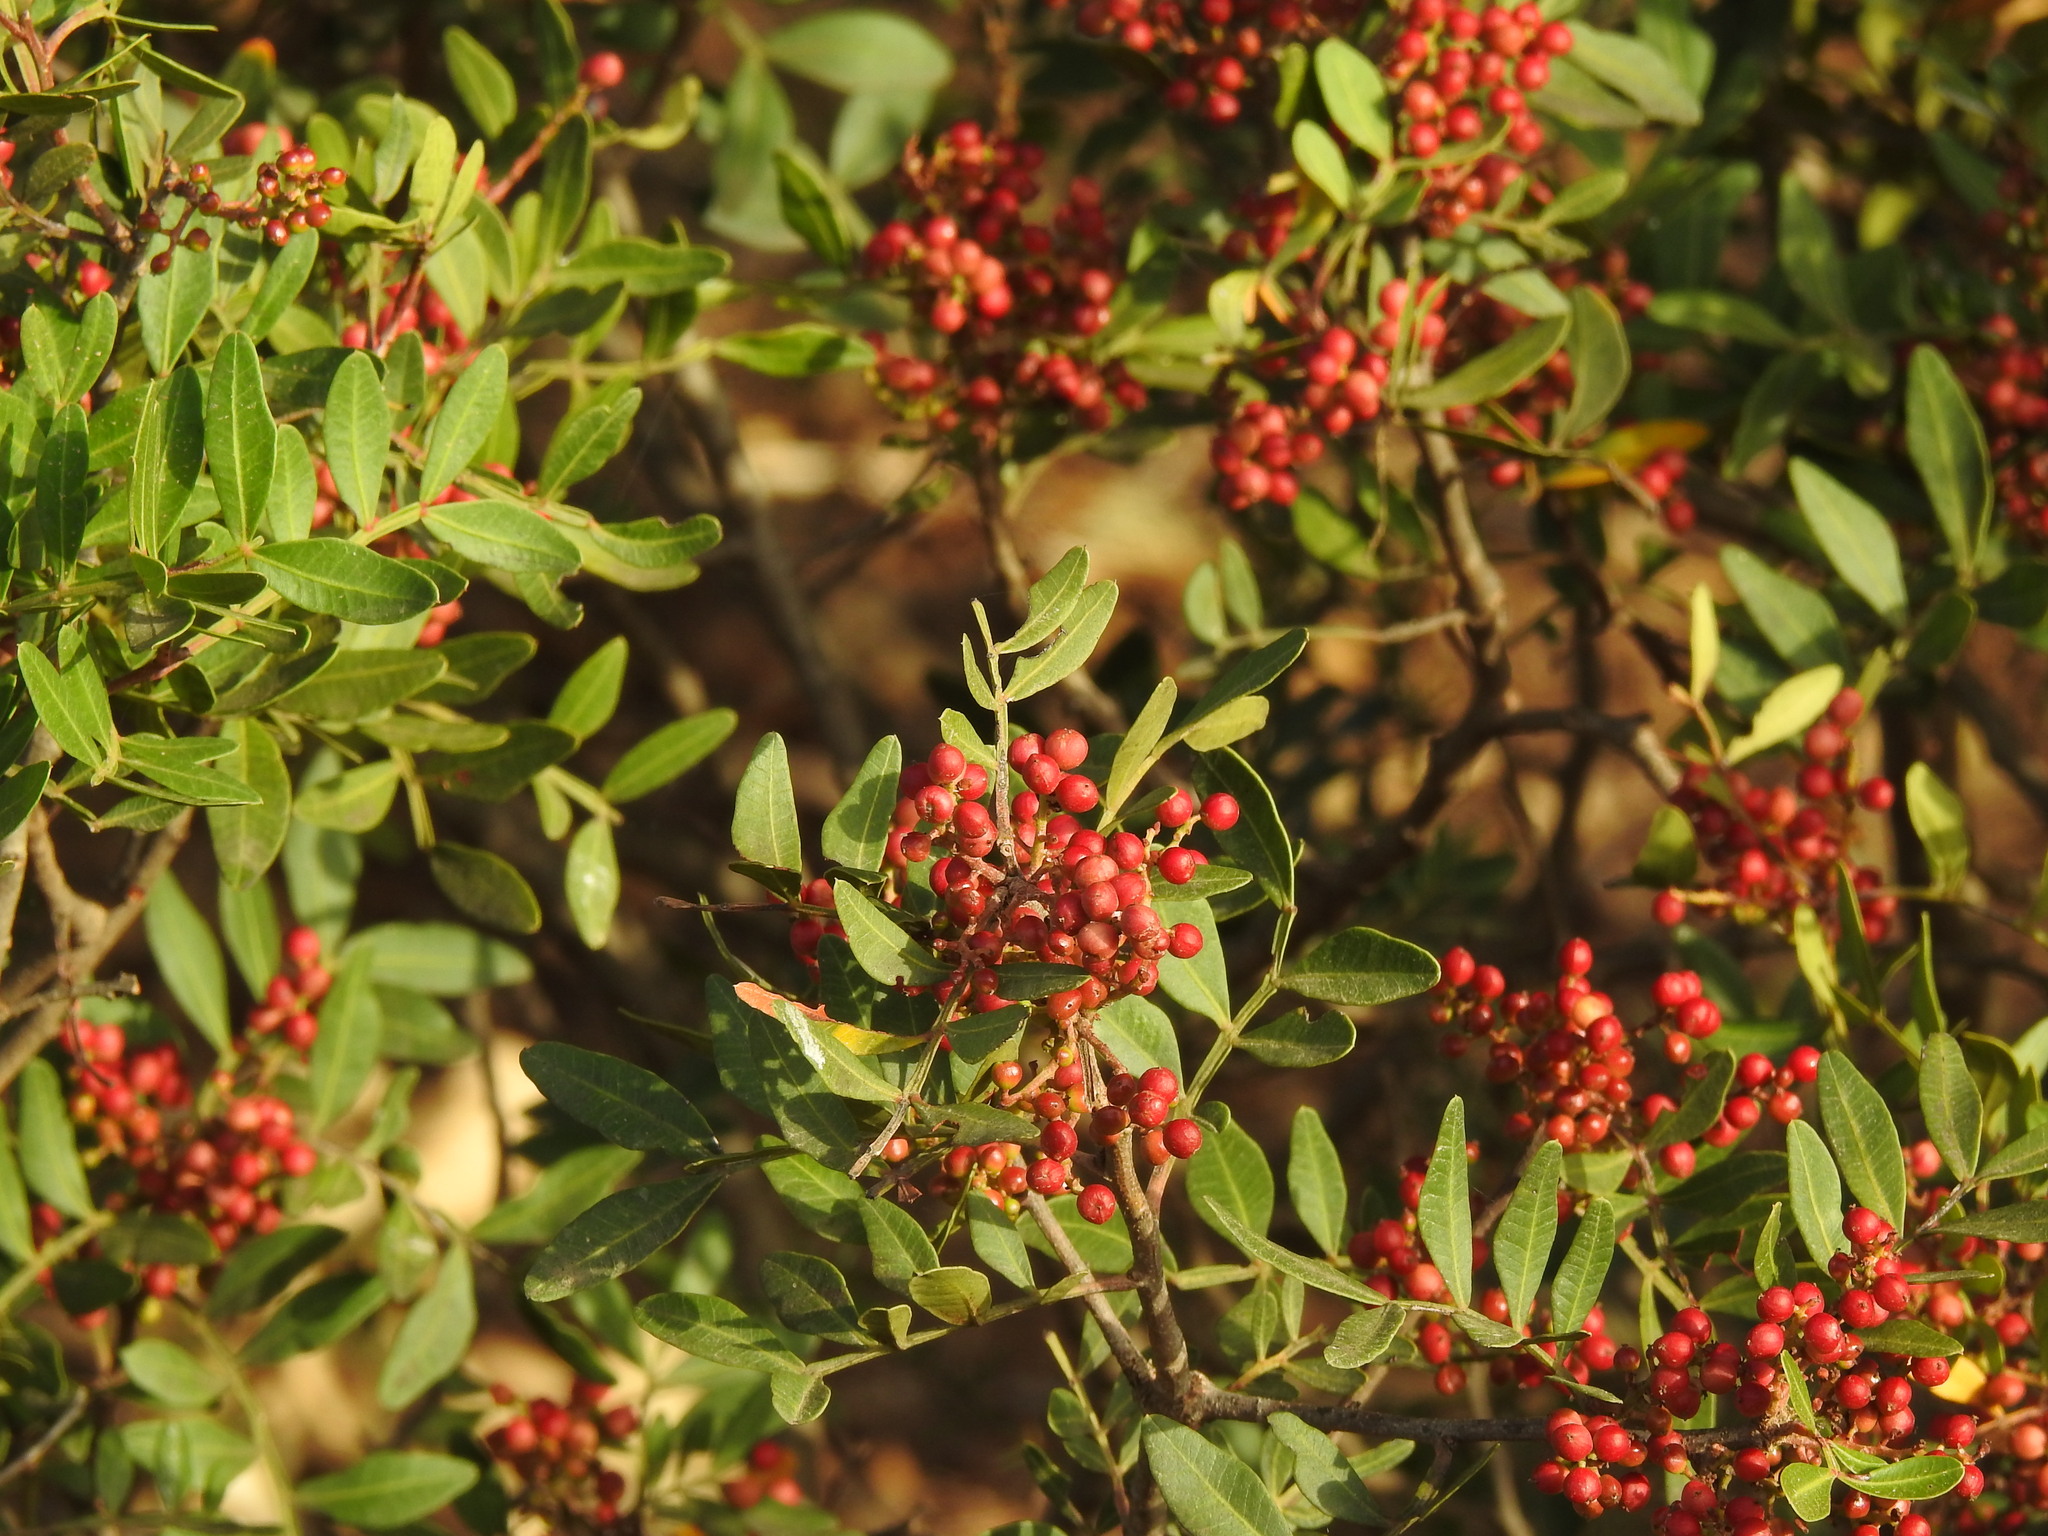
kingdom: Plantae
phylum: Tracheophyta
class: Magnoliopsida
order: Sapindales
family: Anacardiaceae
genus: Pistacia
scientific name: Pistacia lentiscus
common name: Lentisk
